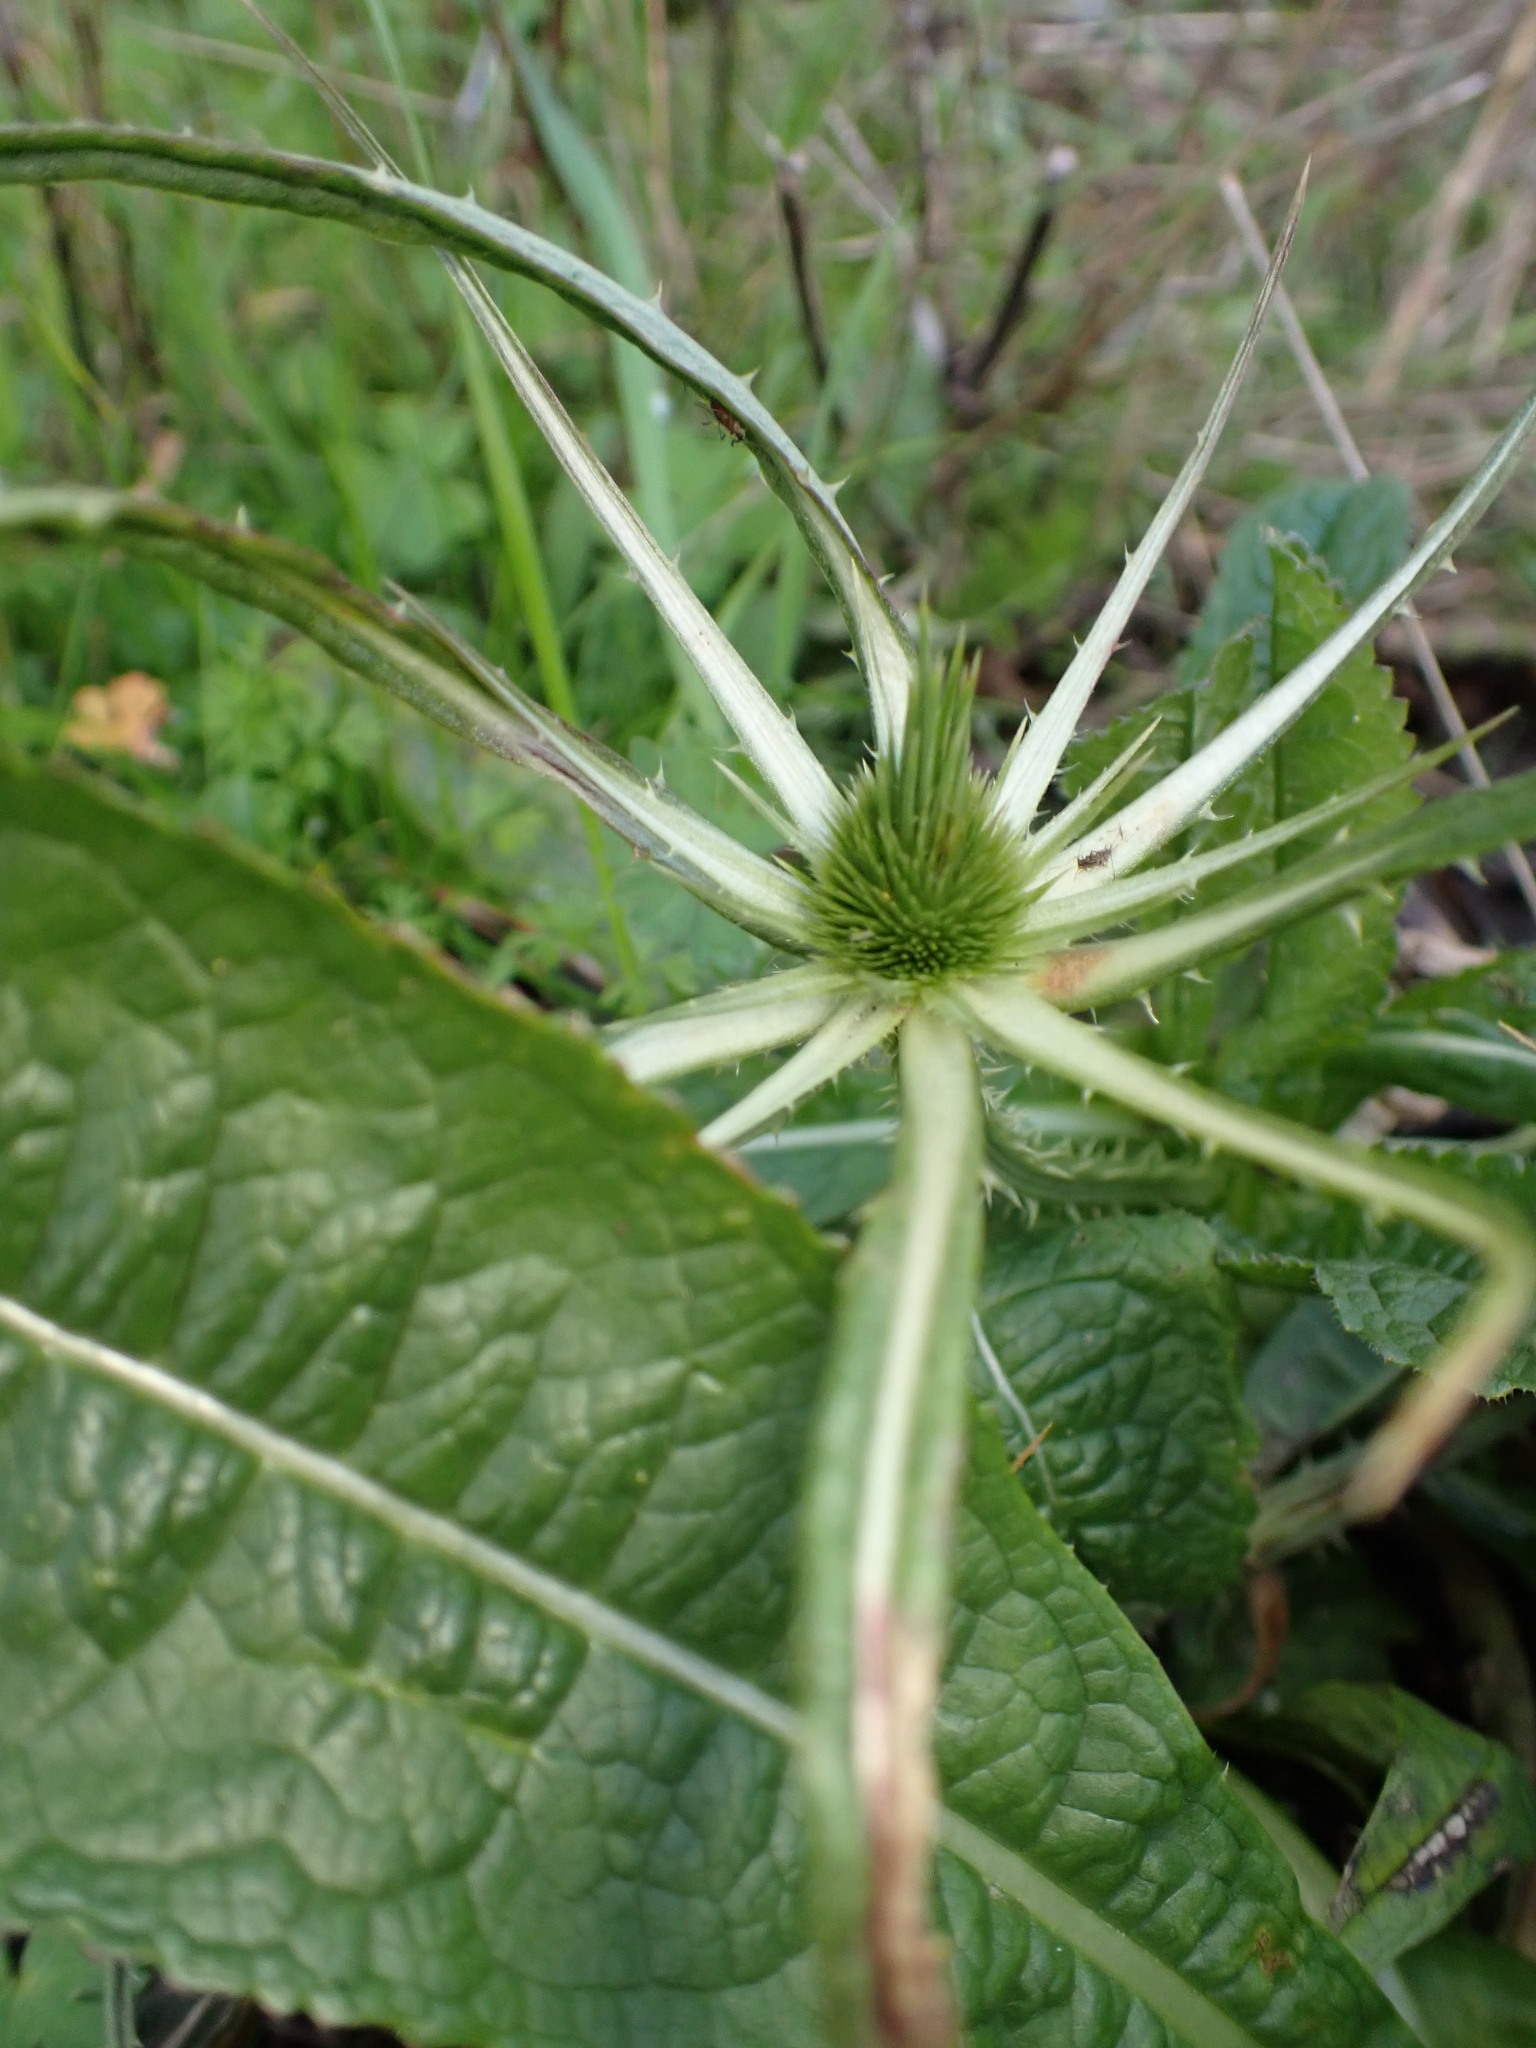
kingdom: Plantae
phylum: Tracheophyta
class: Magnoliopsida
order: Dipsacales
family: Caprifoliaceae
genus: Dipsacus
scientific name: Dipsacus fullonum
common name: Teasel
